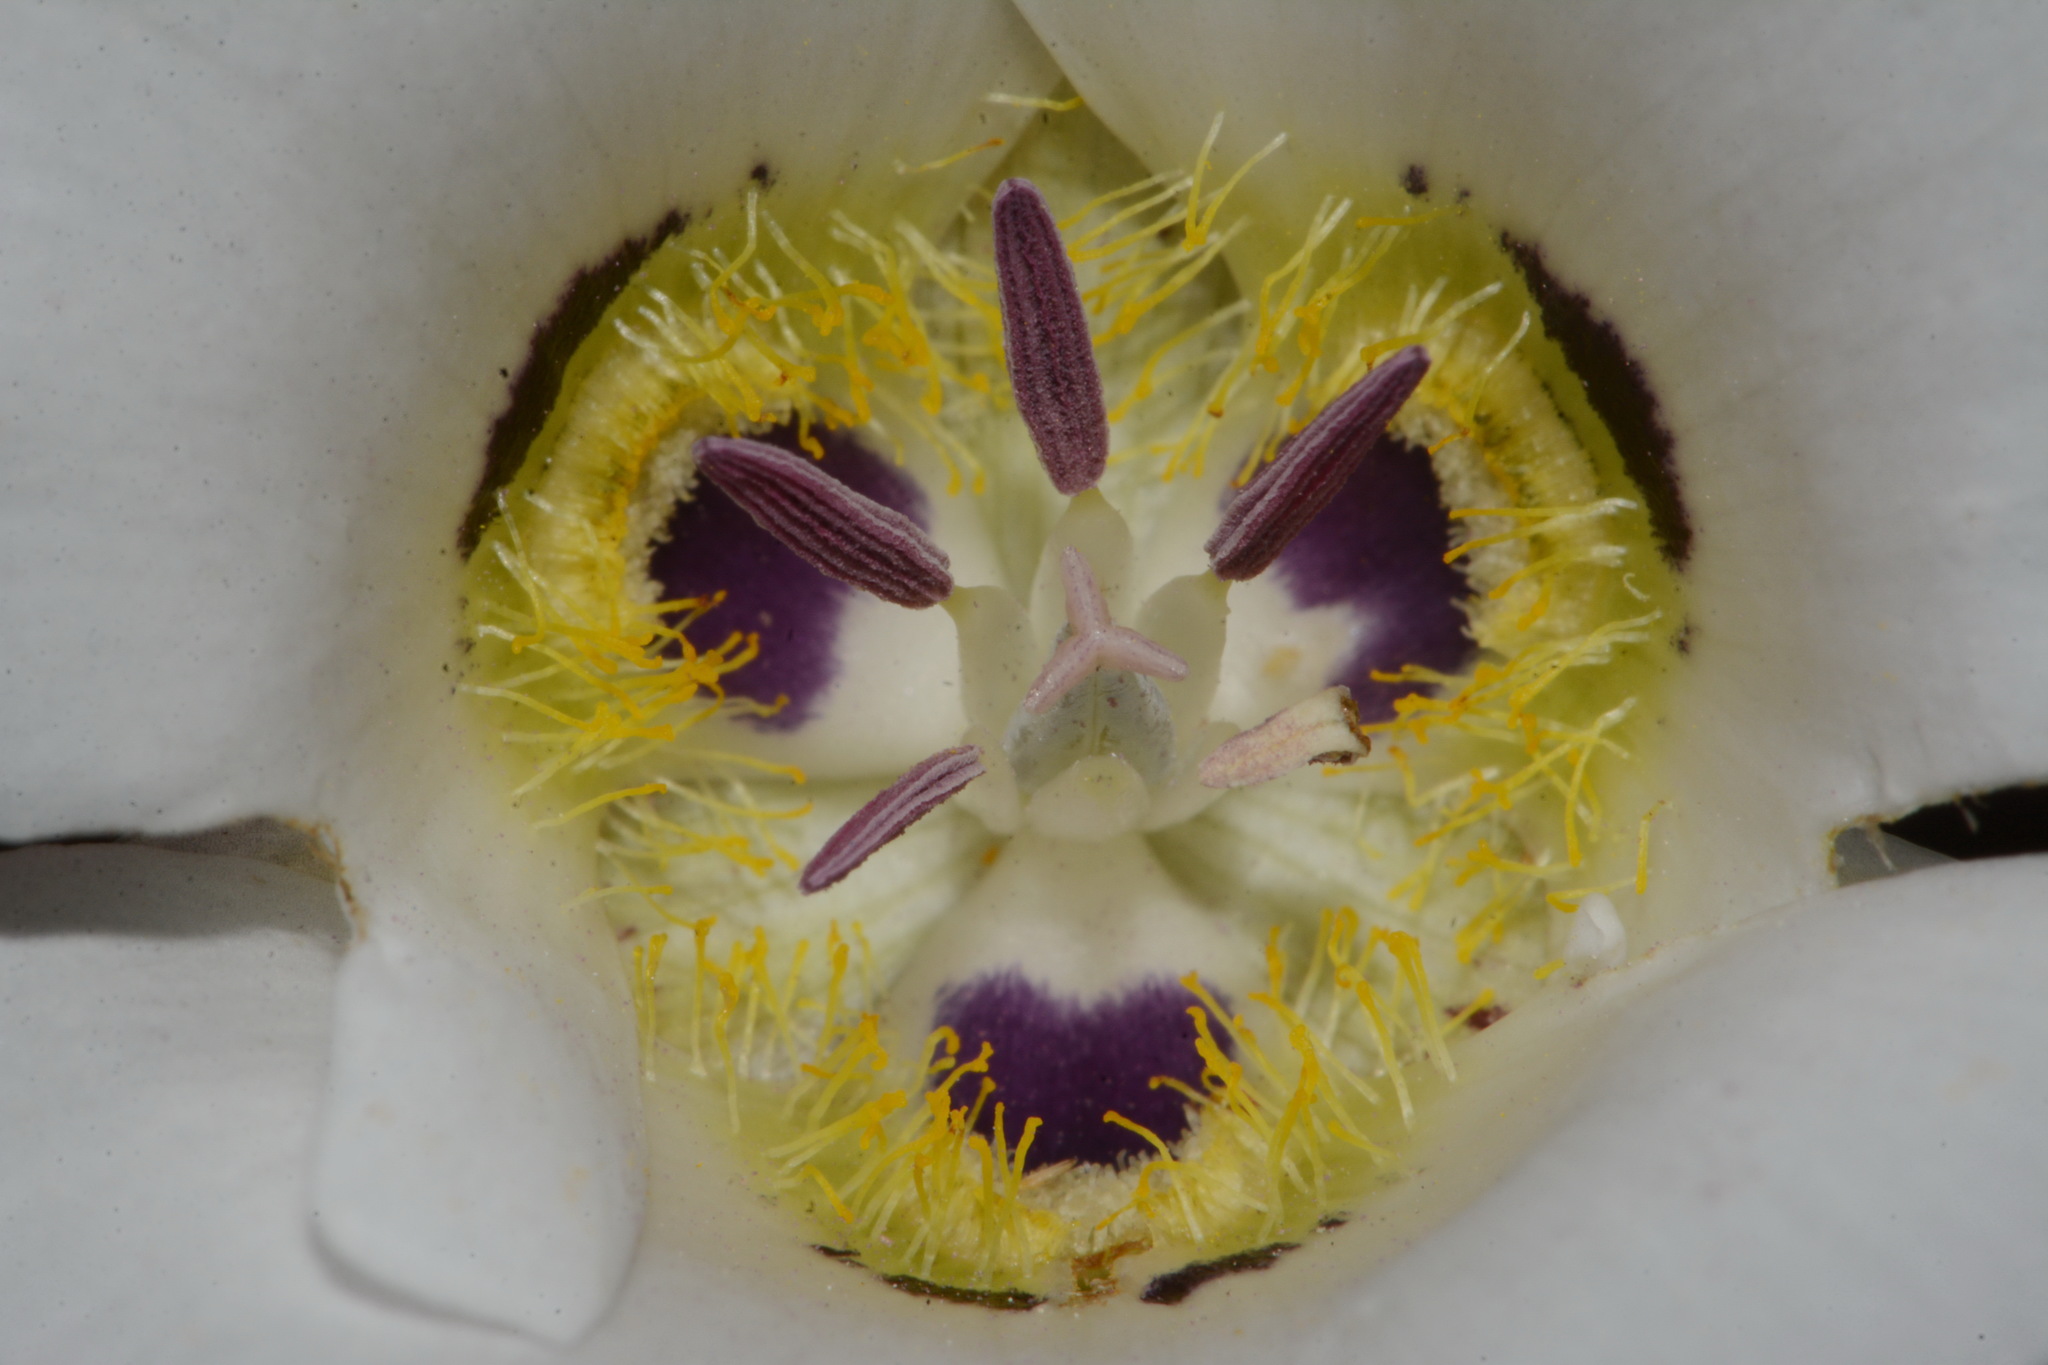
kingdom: Plantae
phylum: Tracheophyta
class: Liliopsida
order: Liliales
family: Liliaceae
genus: Calochortus
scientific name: Calochortus ambiguus
